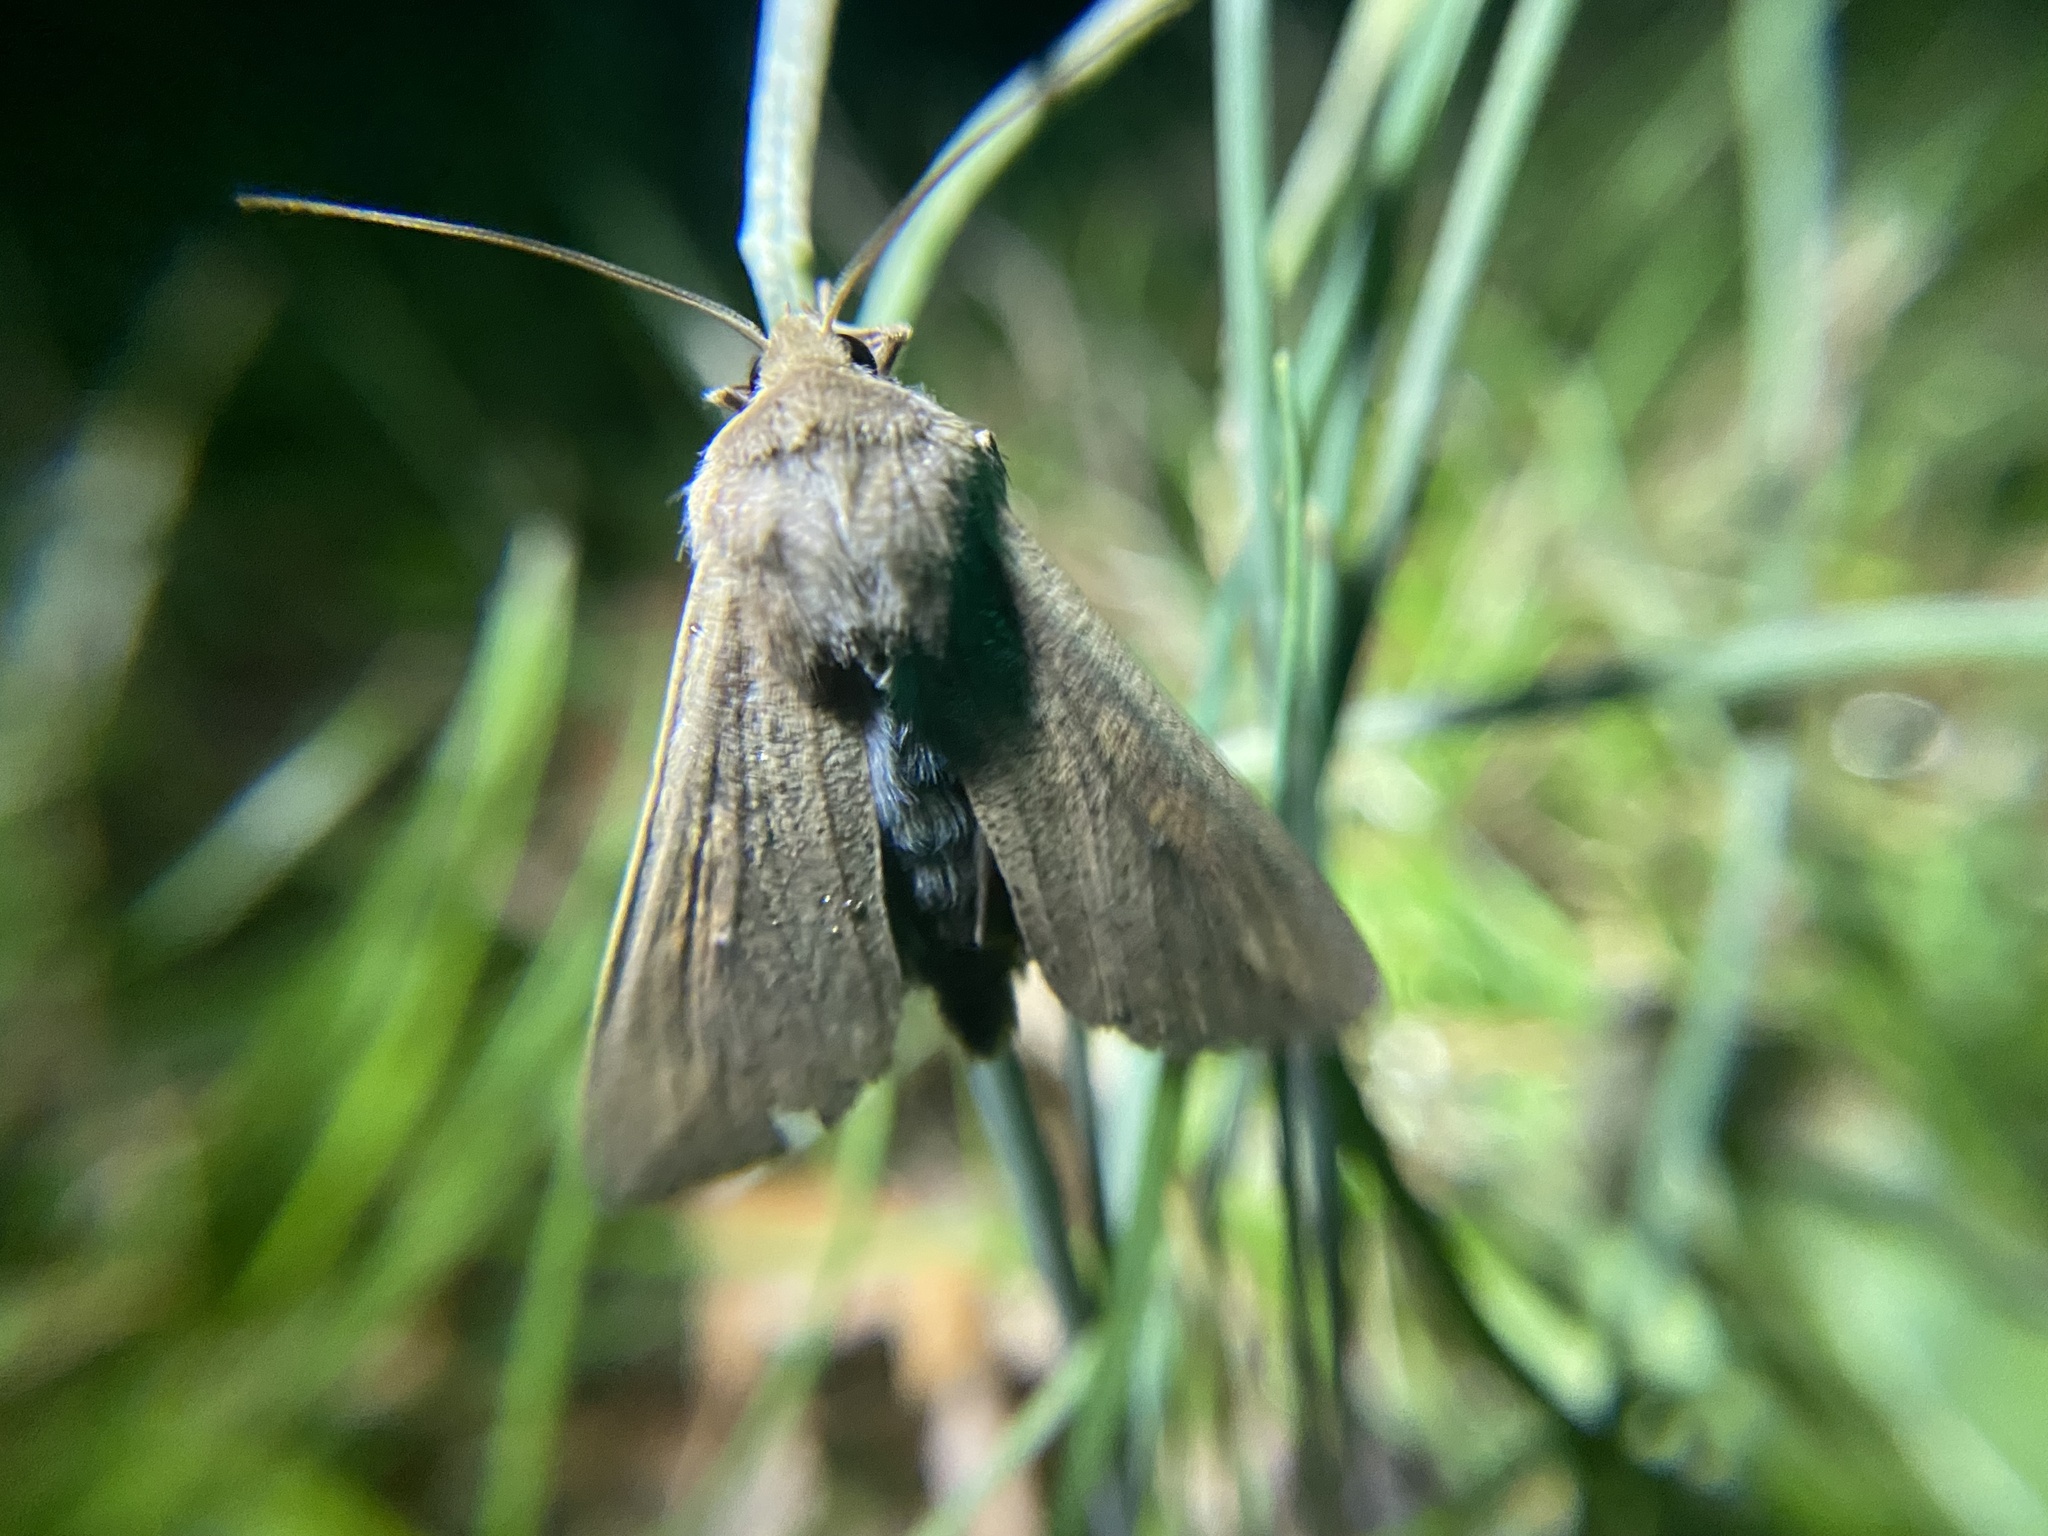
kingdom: Animalia
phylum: Arthropoda
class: Insecta
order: Lepidoptera
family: Noctuidae
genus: Mythimna
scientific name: Mythimna unipuncta
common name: White-speck
